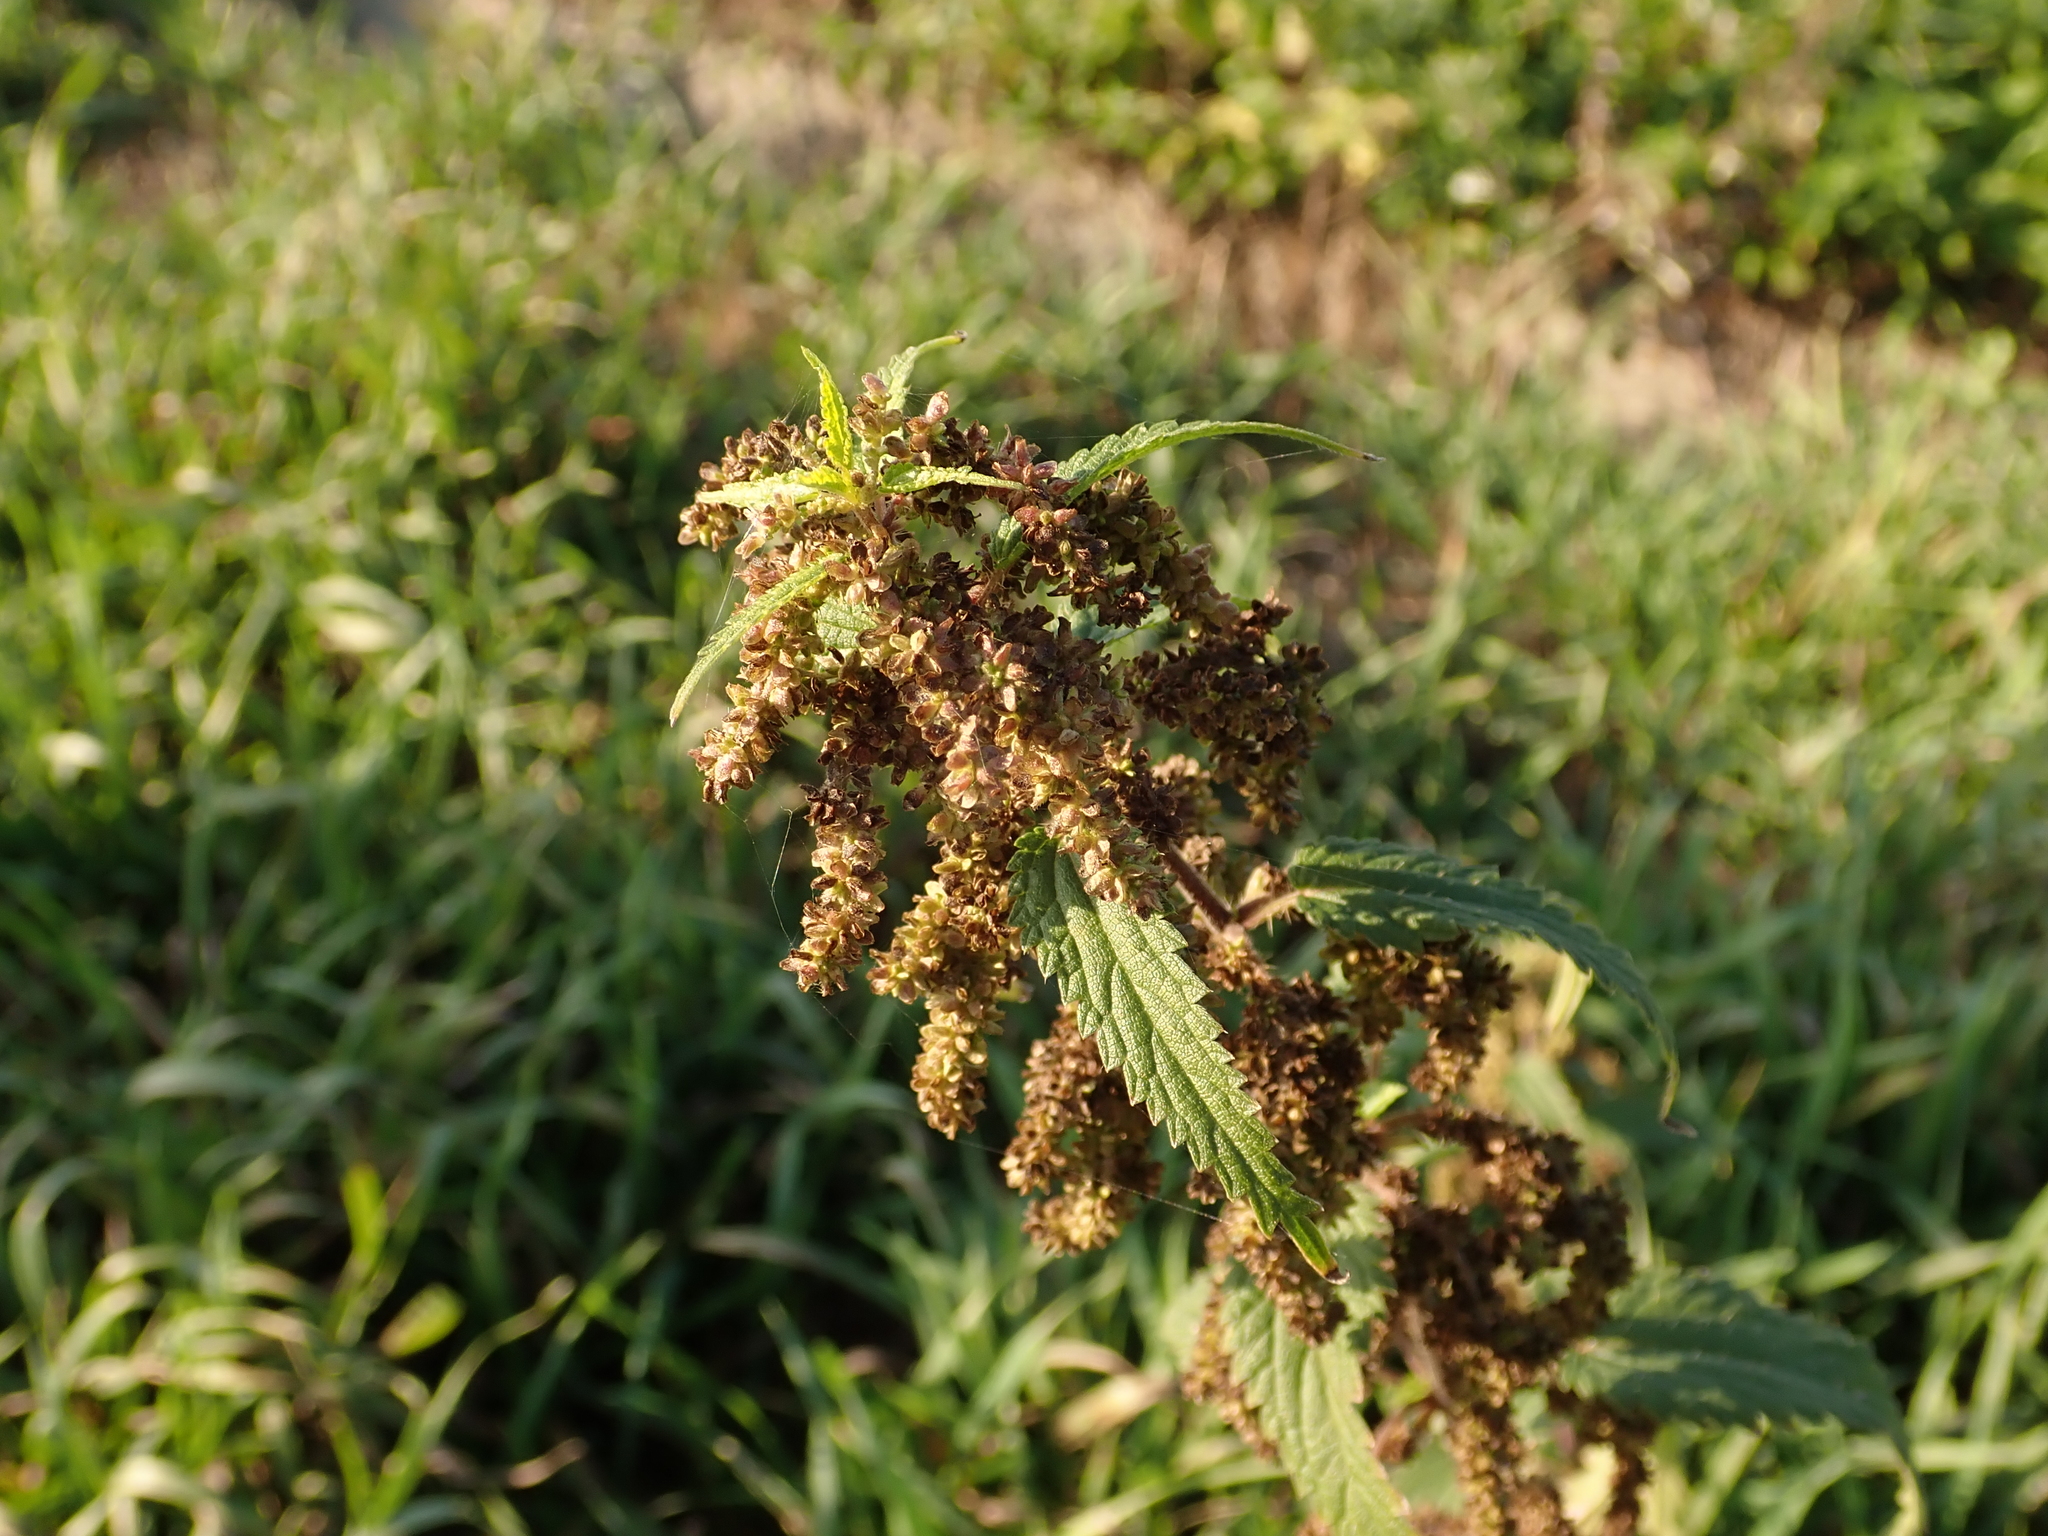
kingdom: Plantae
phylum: Tracheophyta
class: Magnoliopsida
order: Rosales
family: Urticaceae
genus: Urtica
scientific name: Urtica dioica
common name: Common nettle
